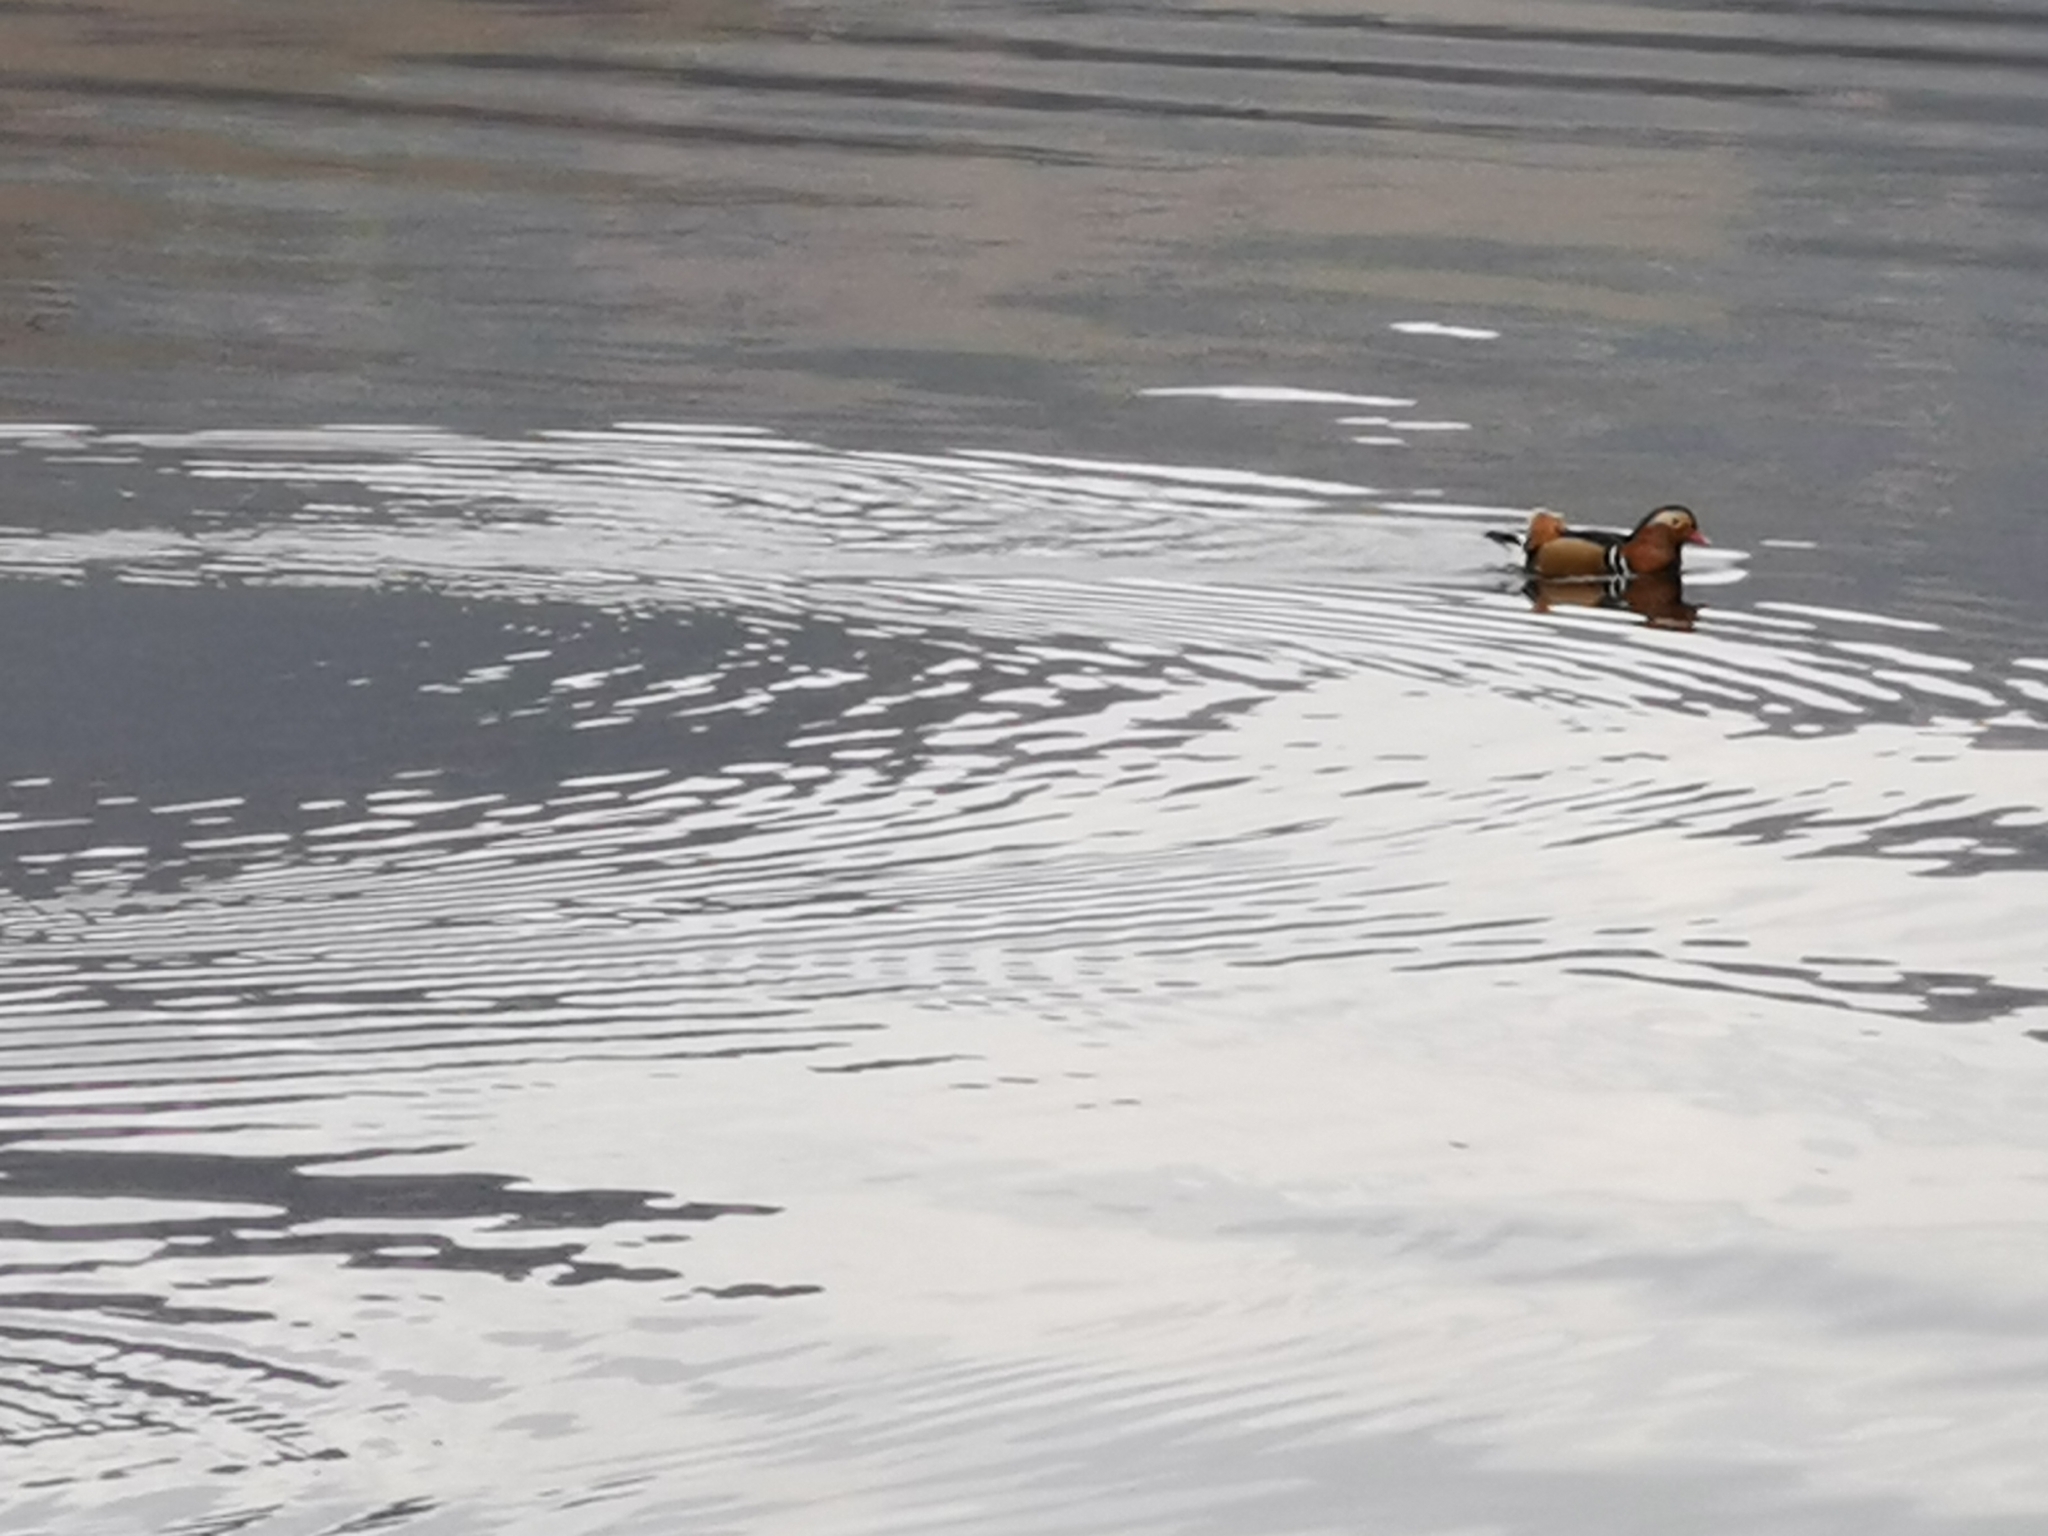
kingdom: Animalia
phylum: Chordata
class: Aves
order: Anseriformes
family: Anatidae
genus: Aix
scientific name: Aix galericulata
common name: Mandarin duck
